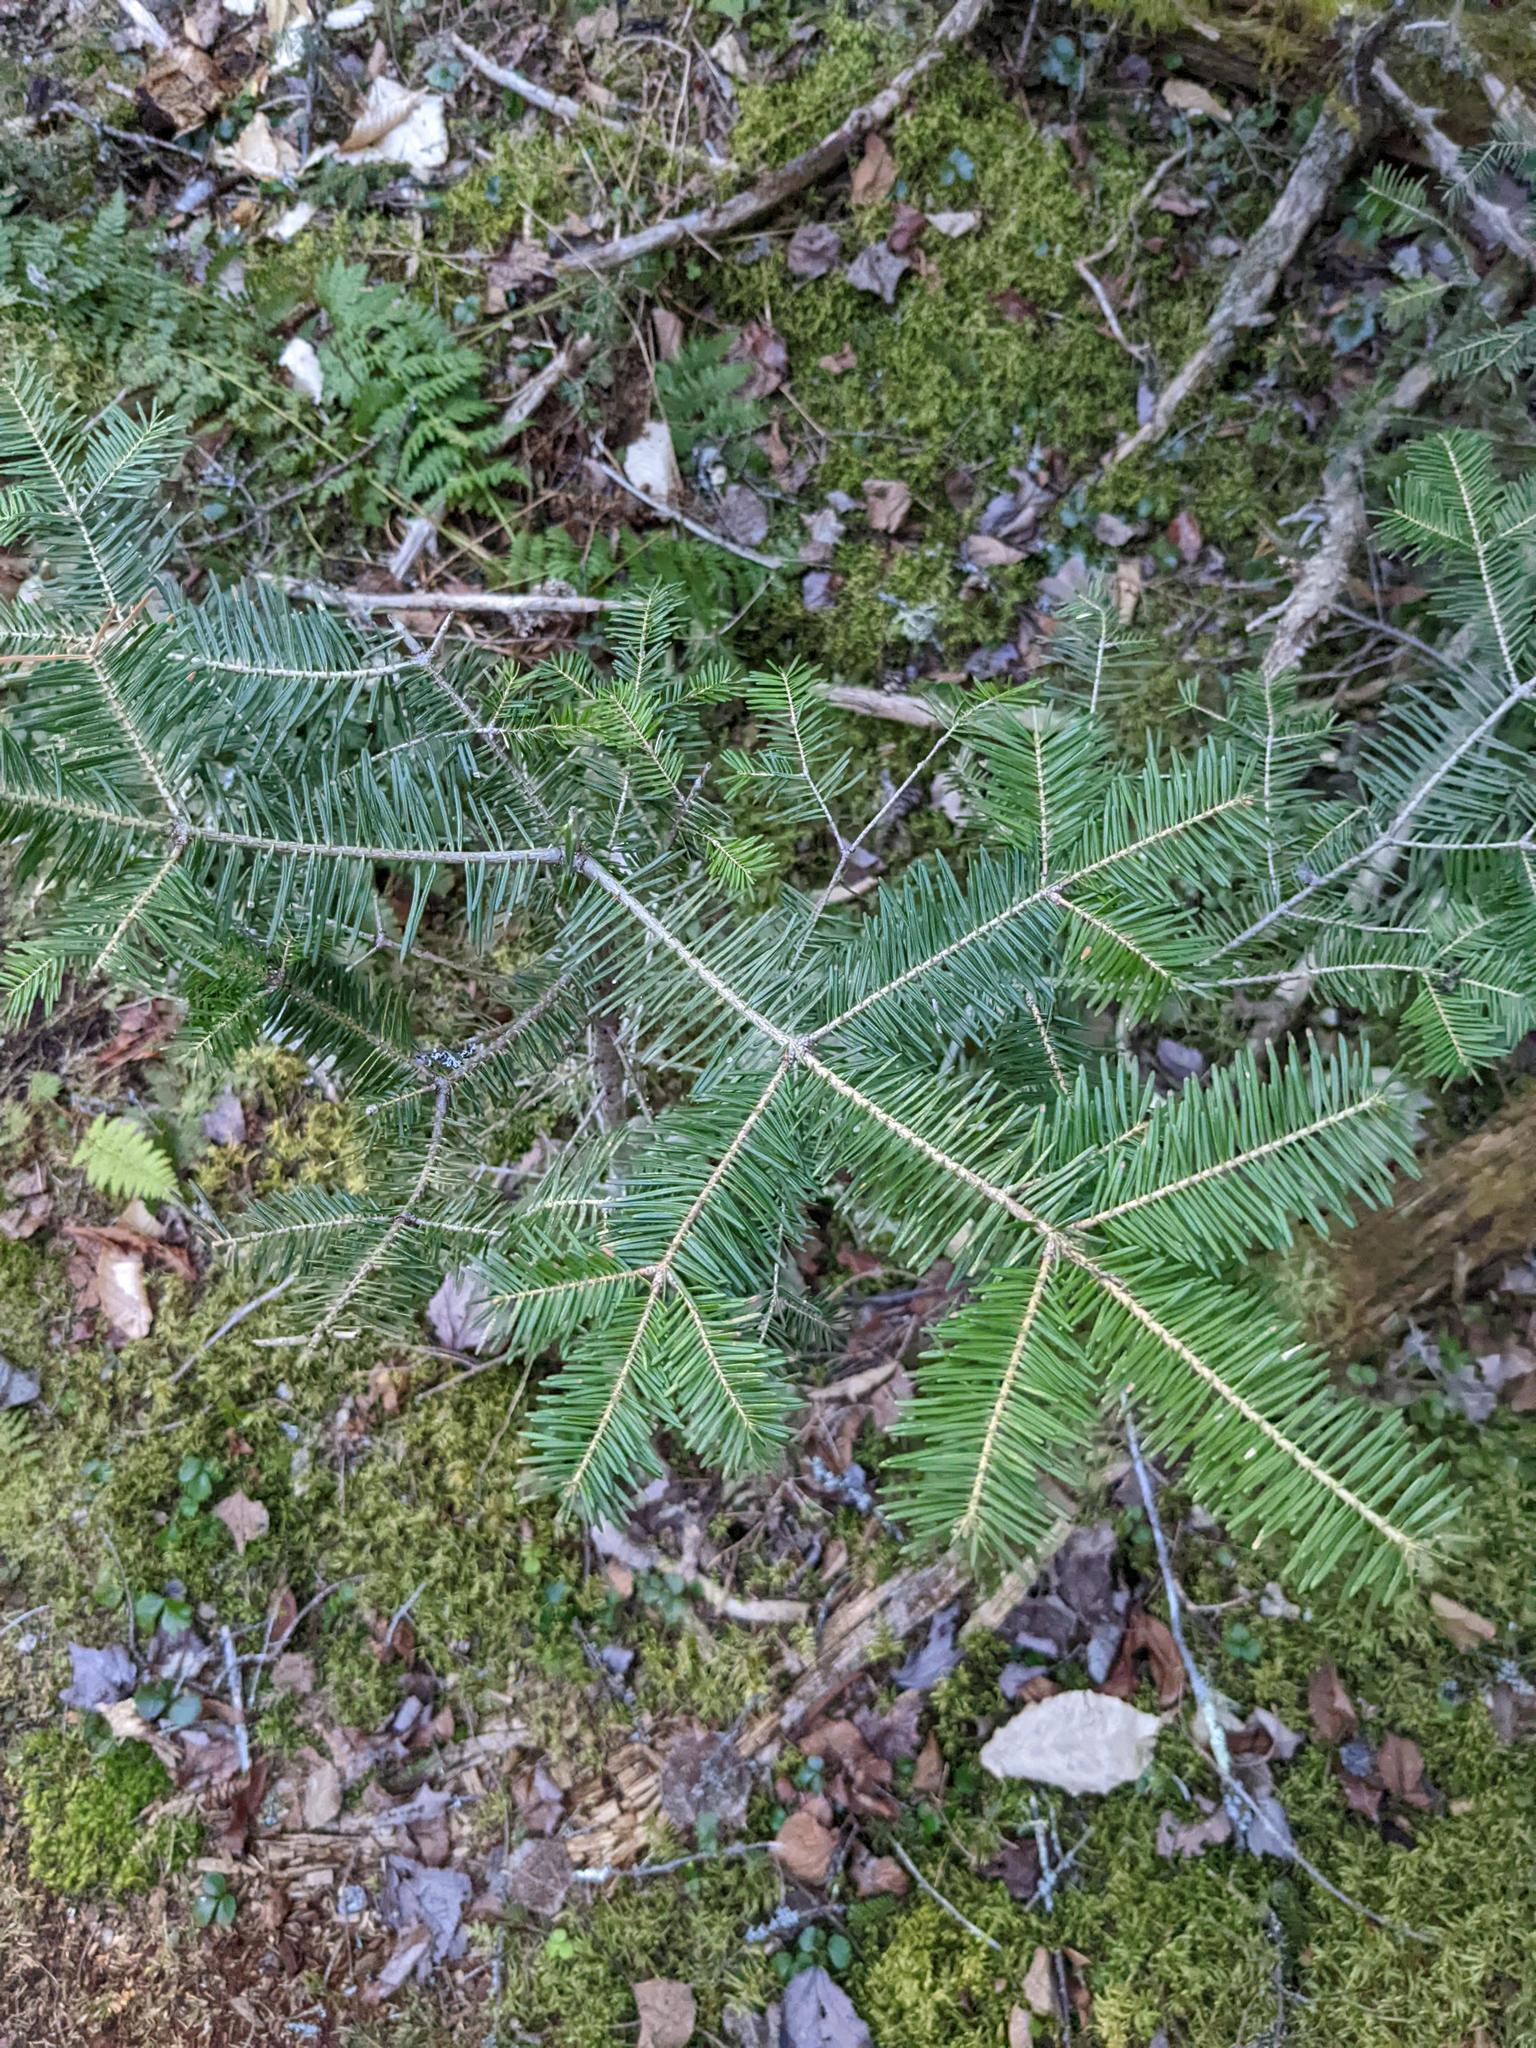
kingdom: Plantae
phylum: Tracheophyta
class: Pinopsida
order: Pinales
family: Pinaceae
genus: Abies
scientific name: Abies balsamea
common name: Balsam fir
